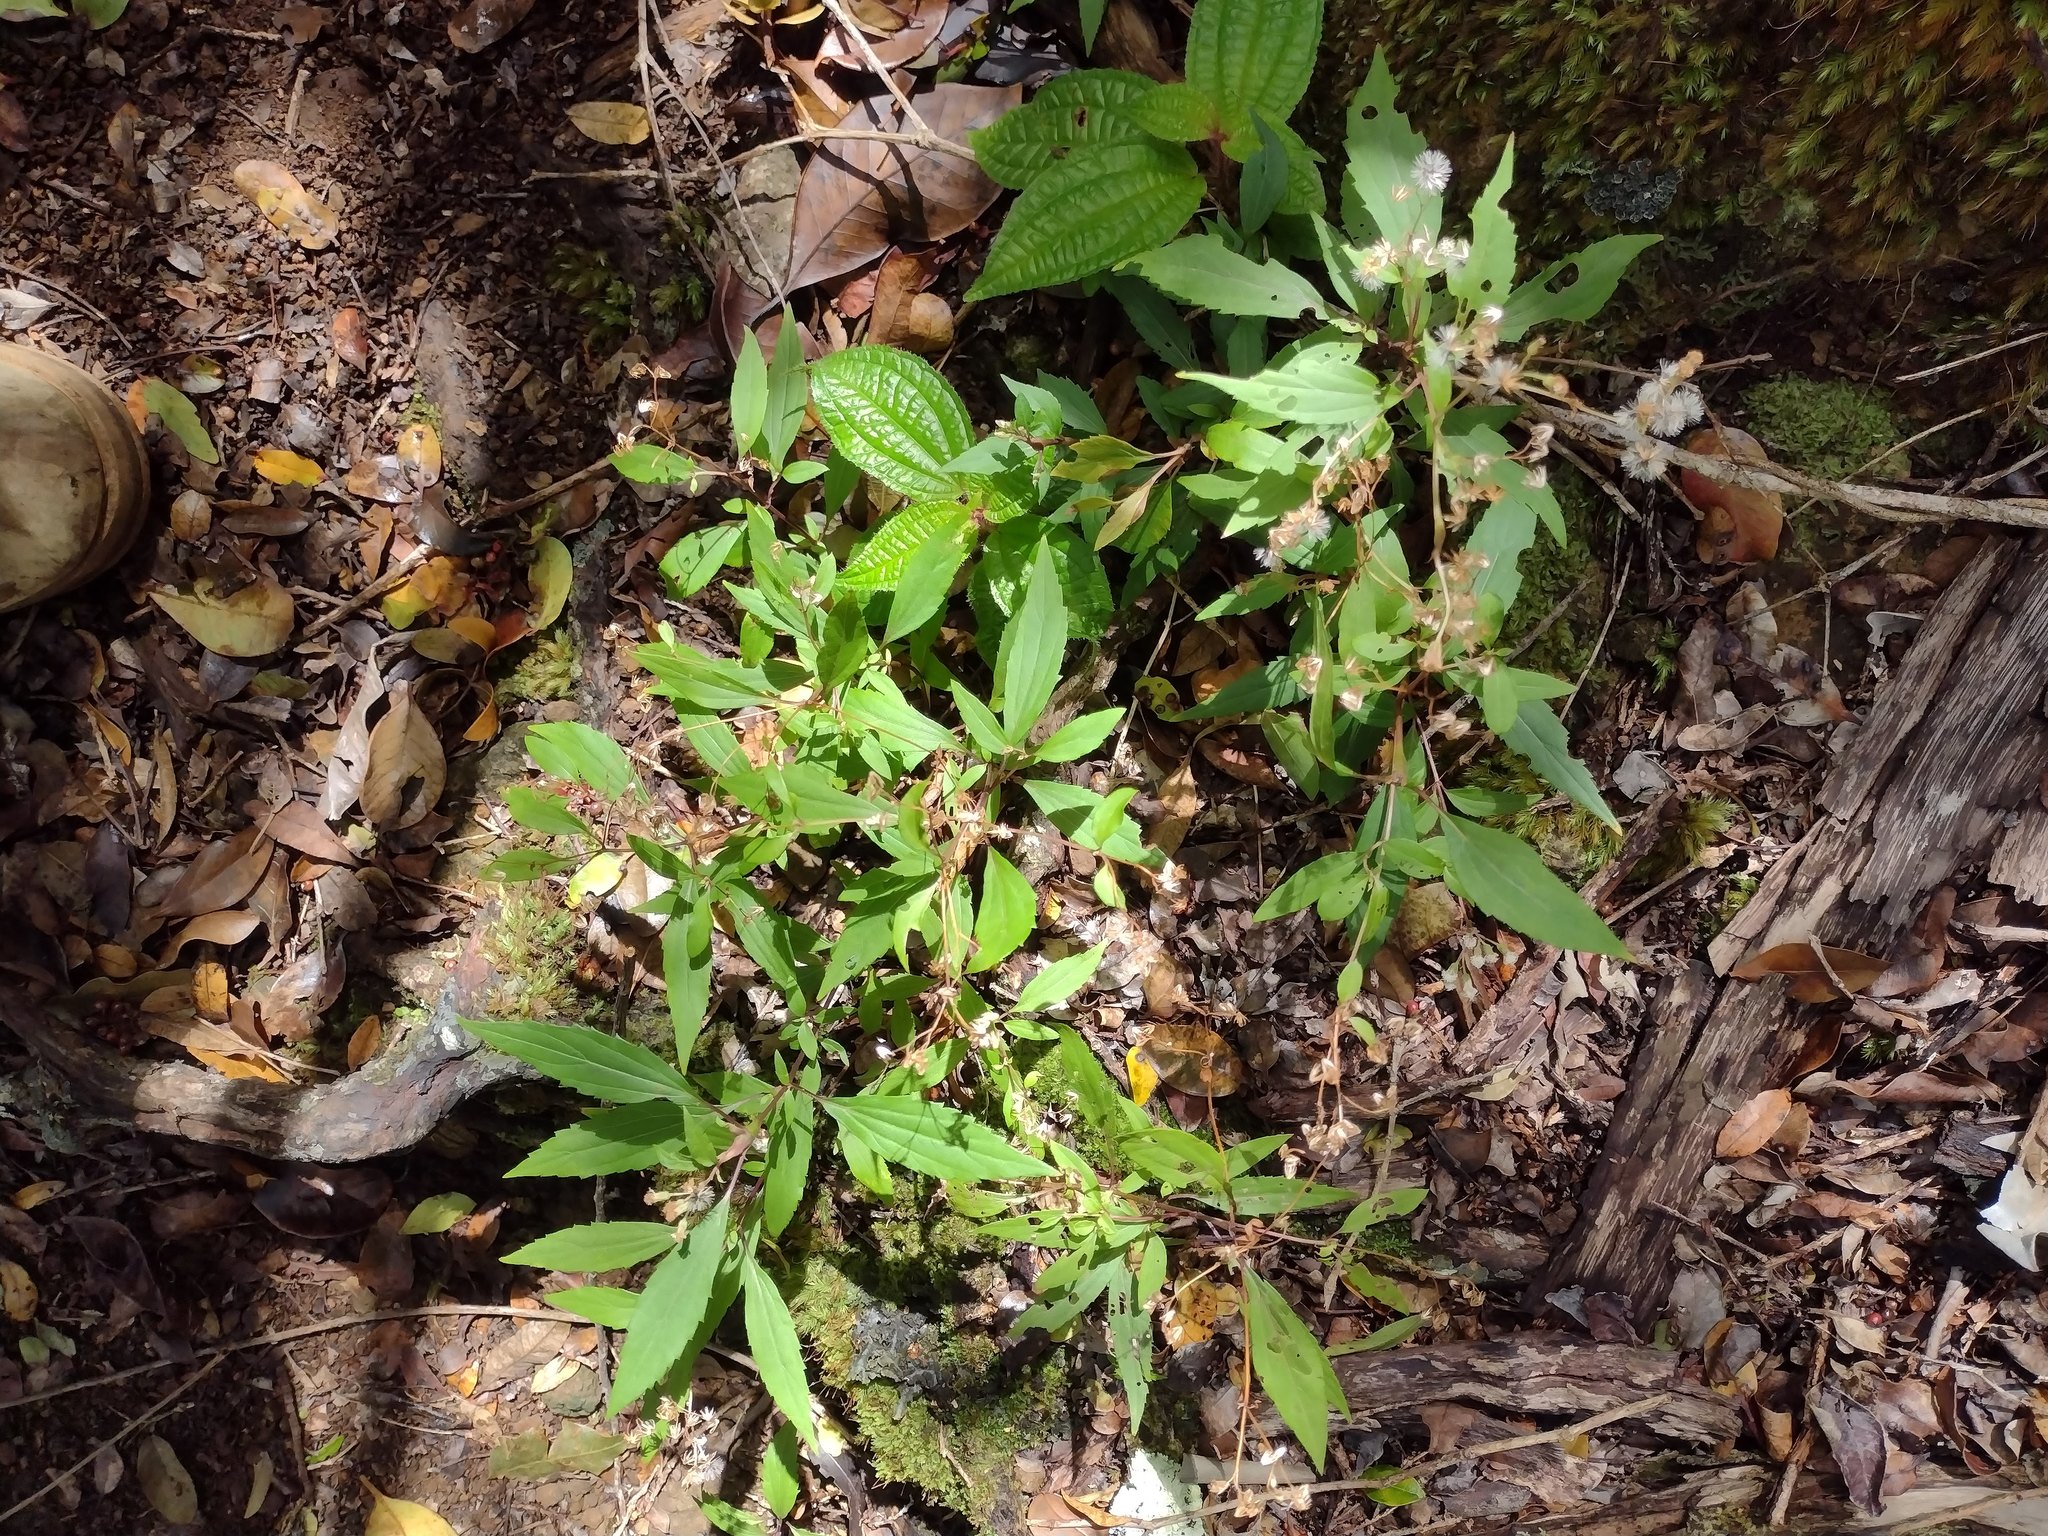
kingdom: Plantae
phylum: Tracheophyta
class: Magnoliopsida
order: Asterales
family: Asteraceae
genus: Ageratina
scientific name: Ageratina riparia
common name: Creeping croftonweed
